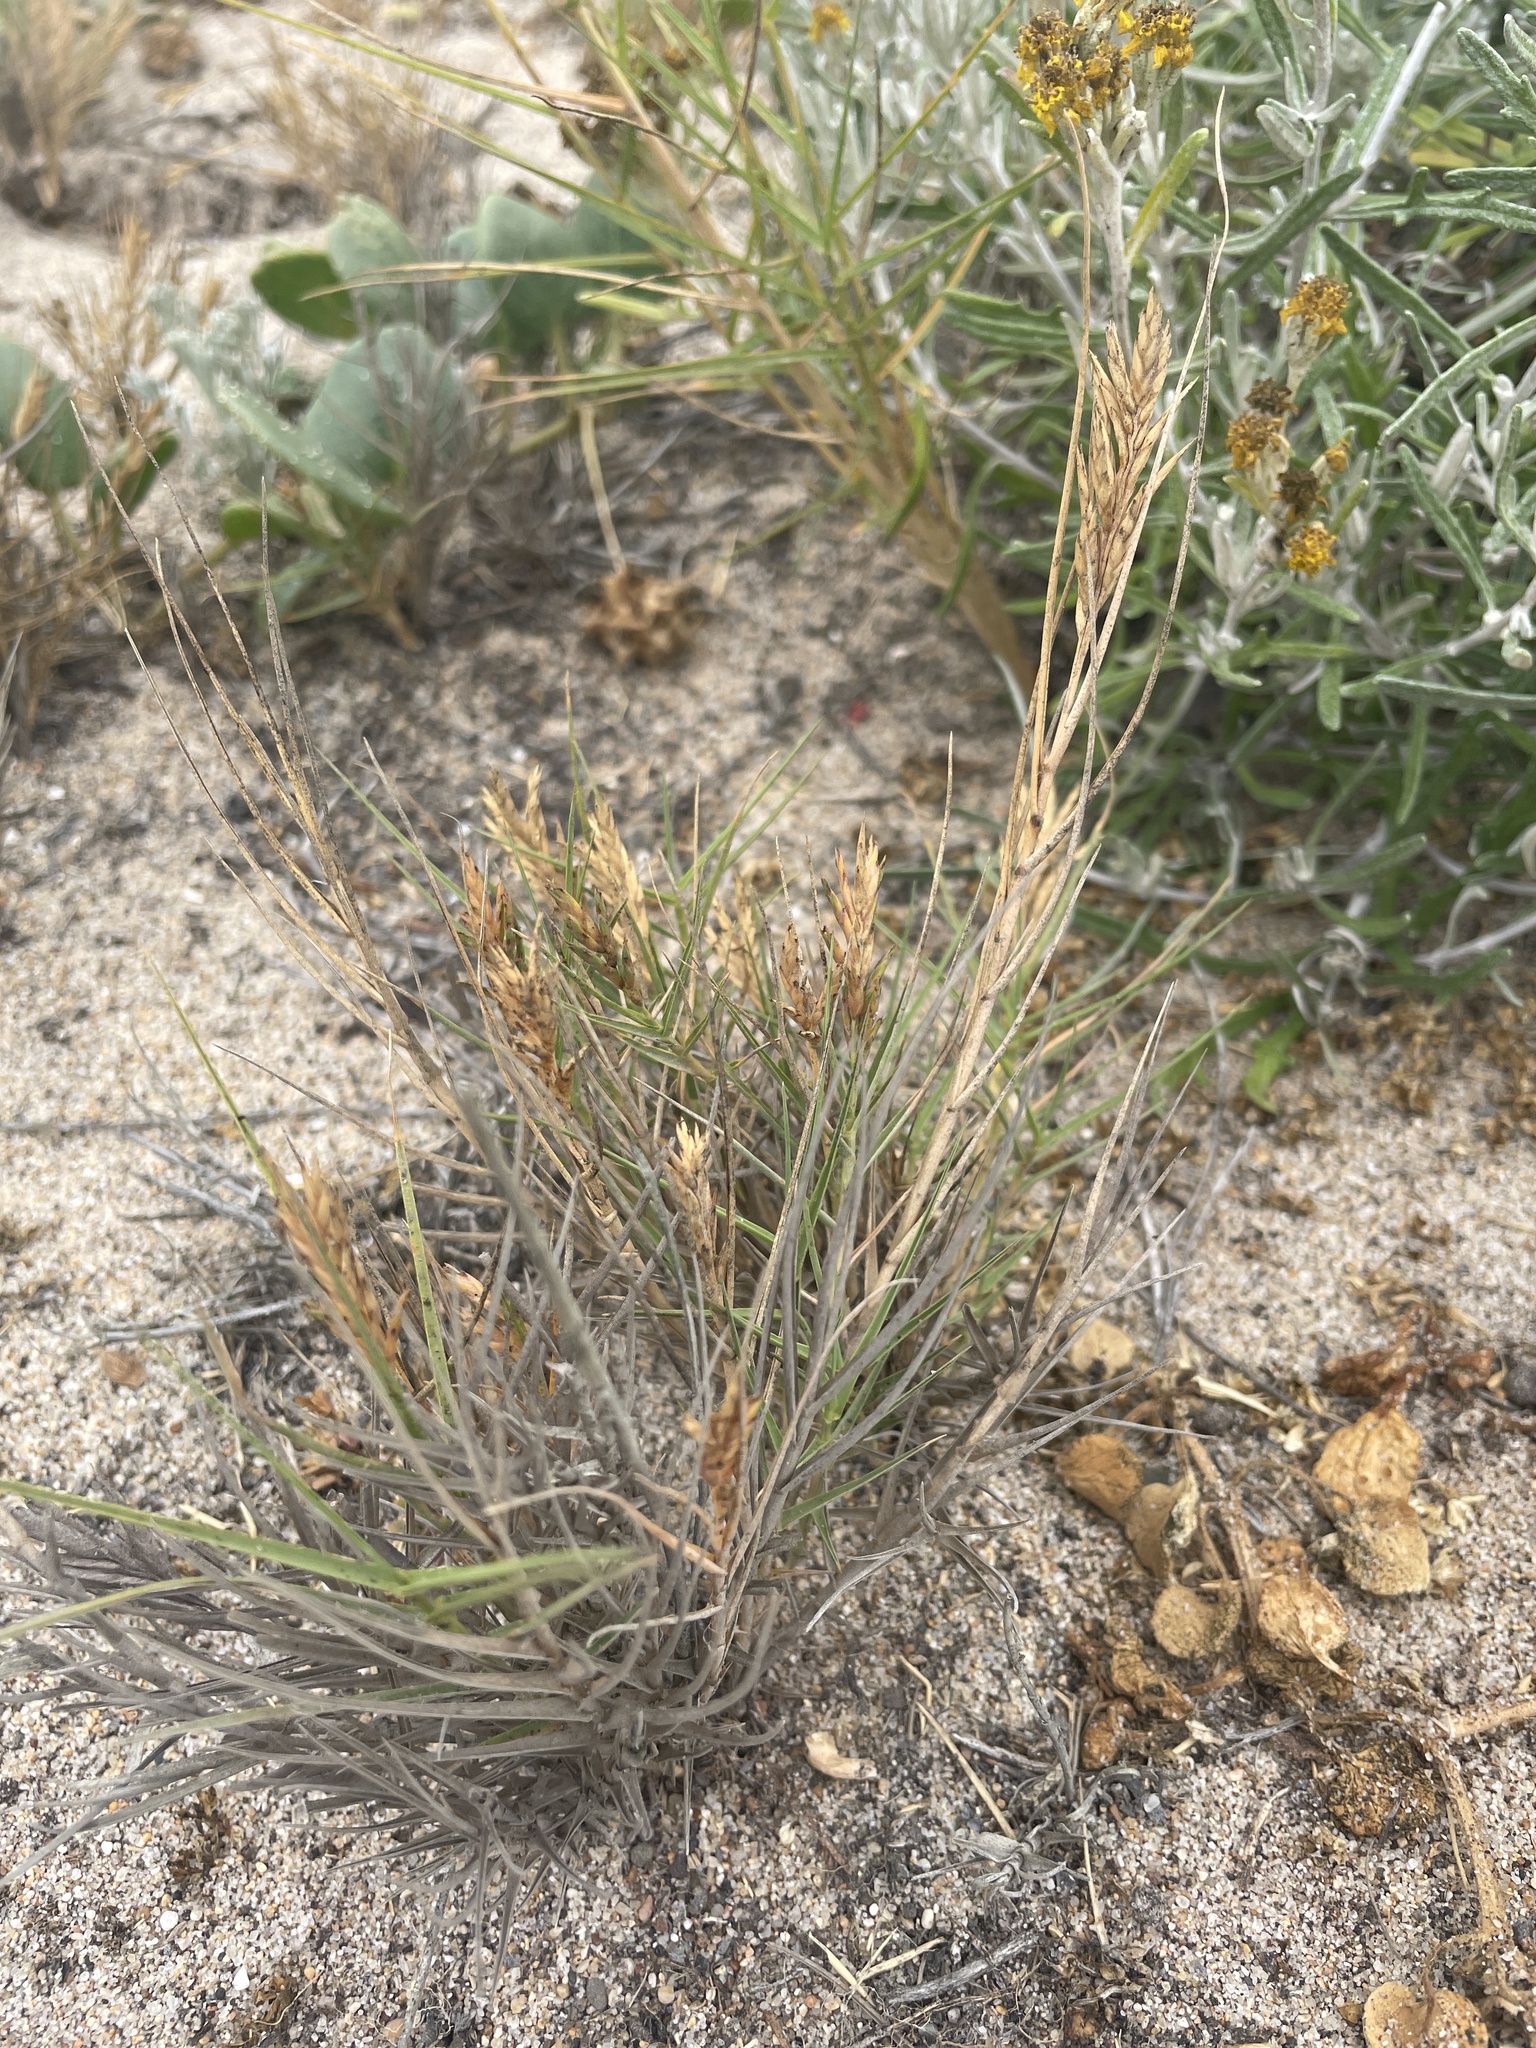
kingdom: Plantae
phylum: Tracheophyta
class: Liliopsida
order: Poales
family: Poaceae
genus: Distichlis
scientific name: Distichlis spicata
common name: Saltgrass
